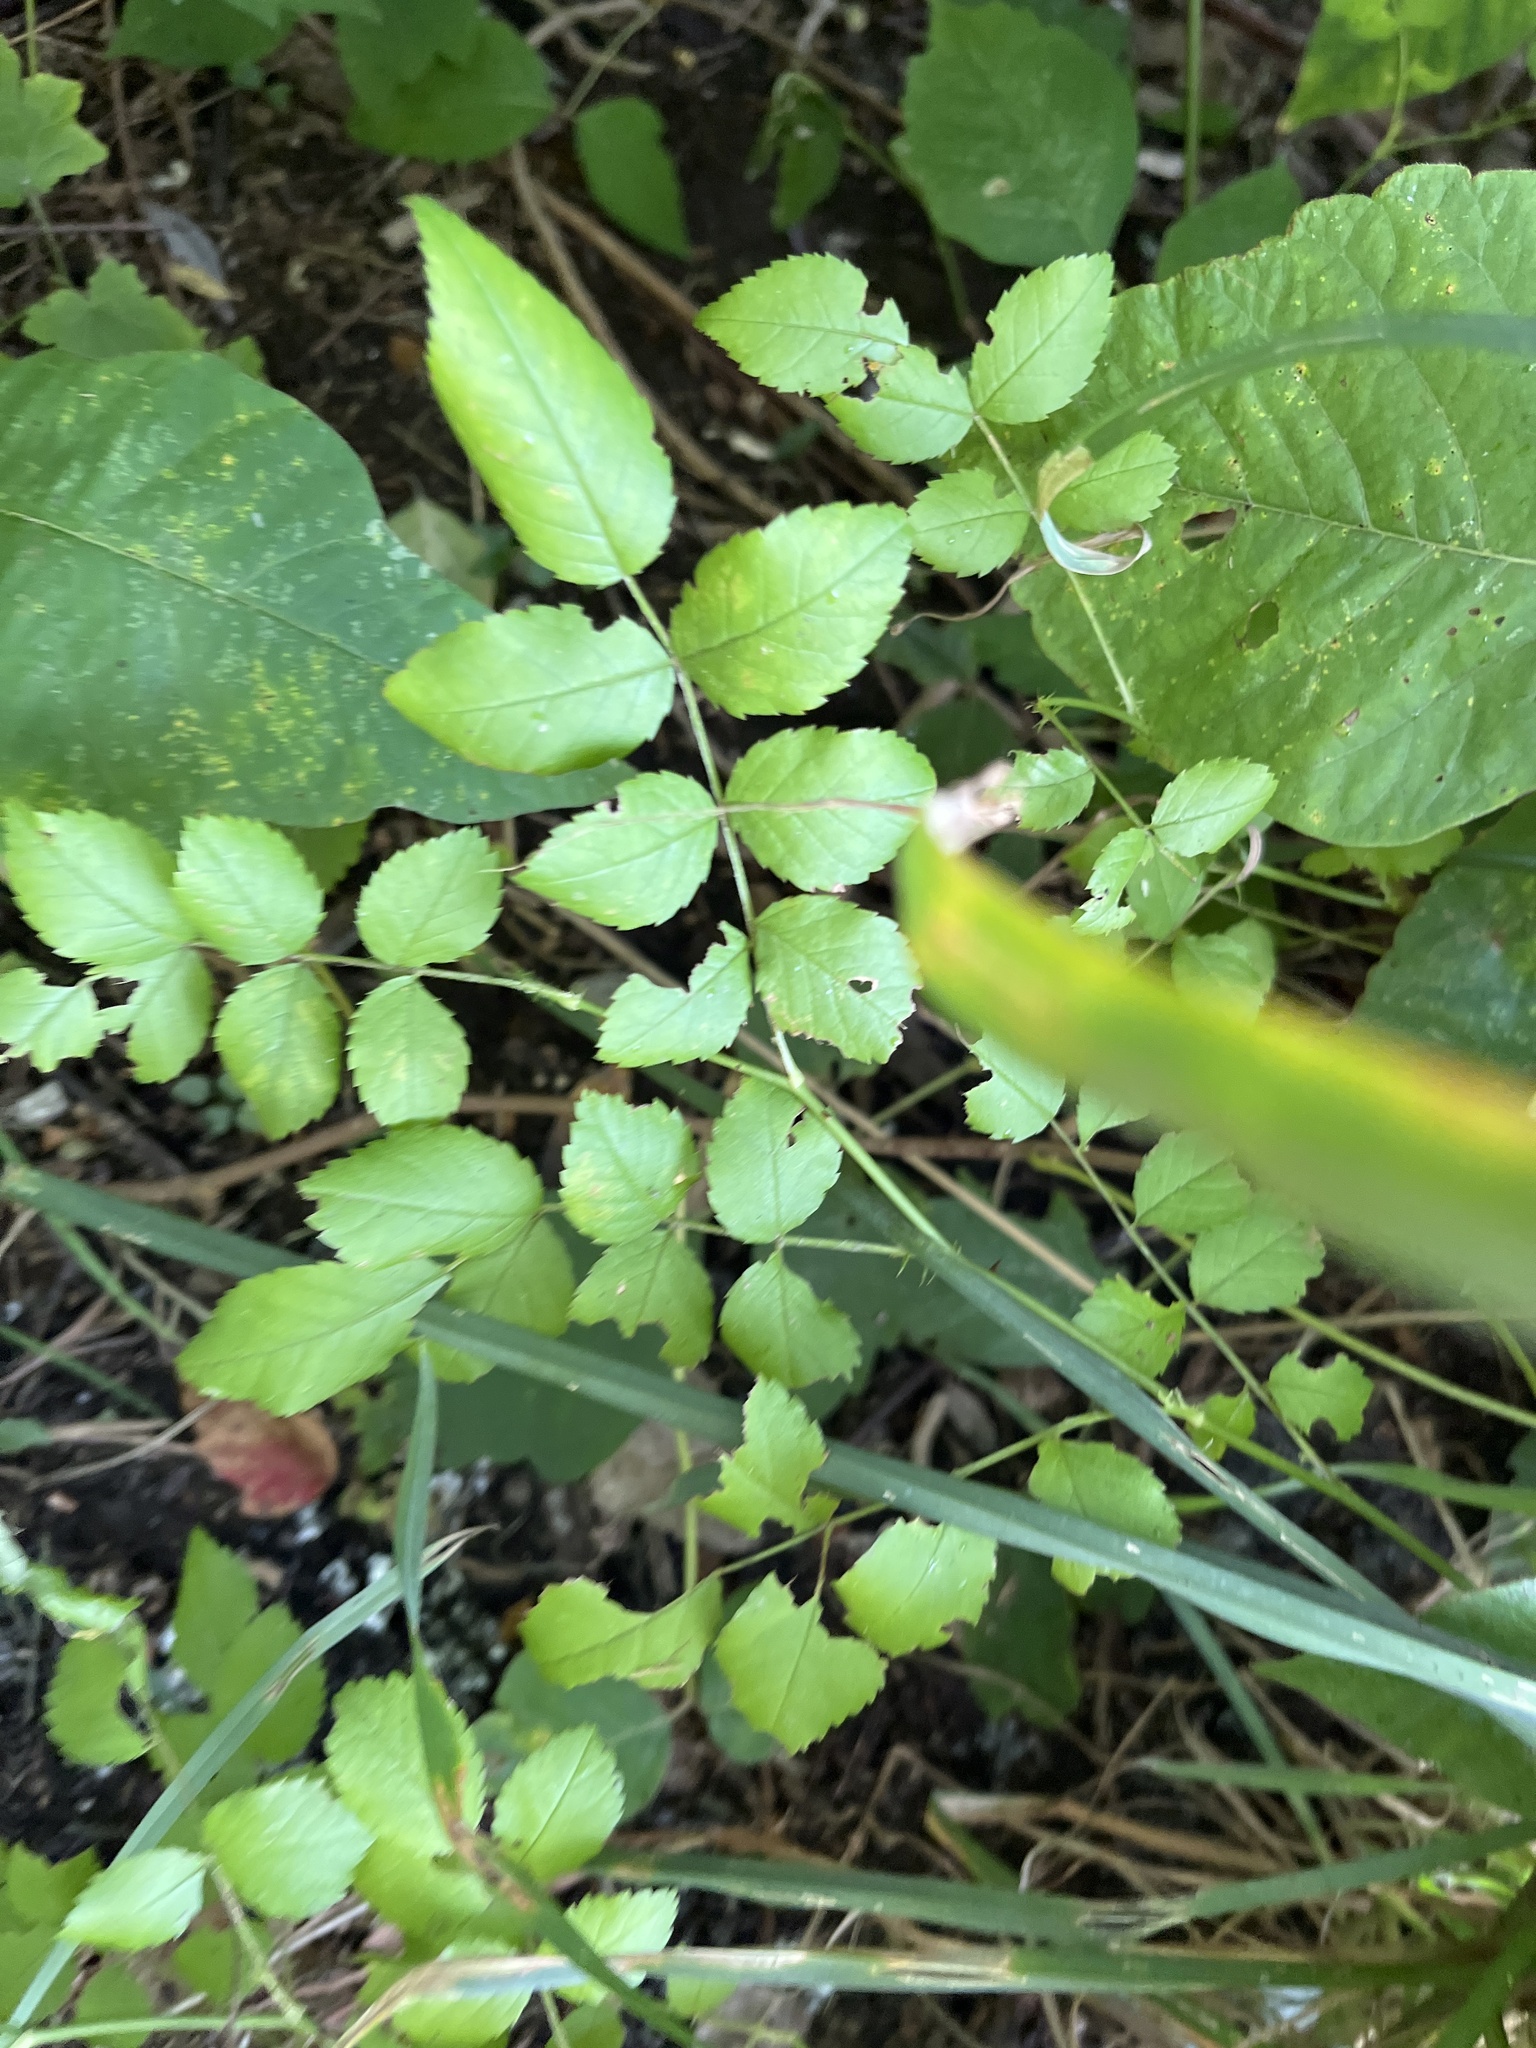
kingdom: Plantae
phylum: Tracheophyta
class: Magnoliopsida
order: Rosales
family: Rosaceae
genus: Rosa
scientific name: Rosa multiflora
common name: Multiflora rose
